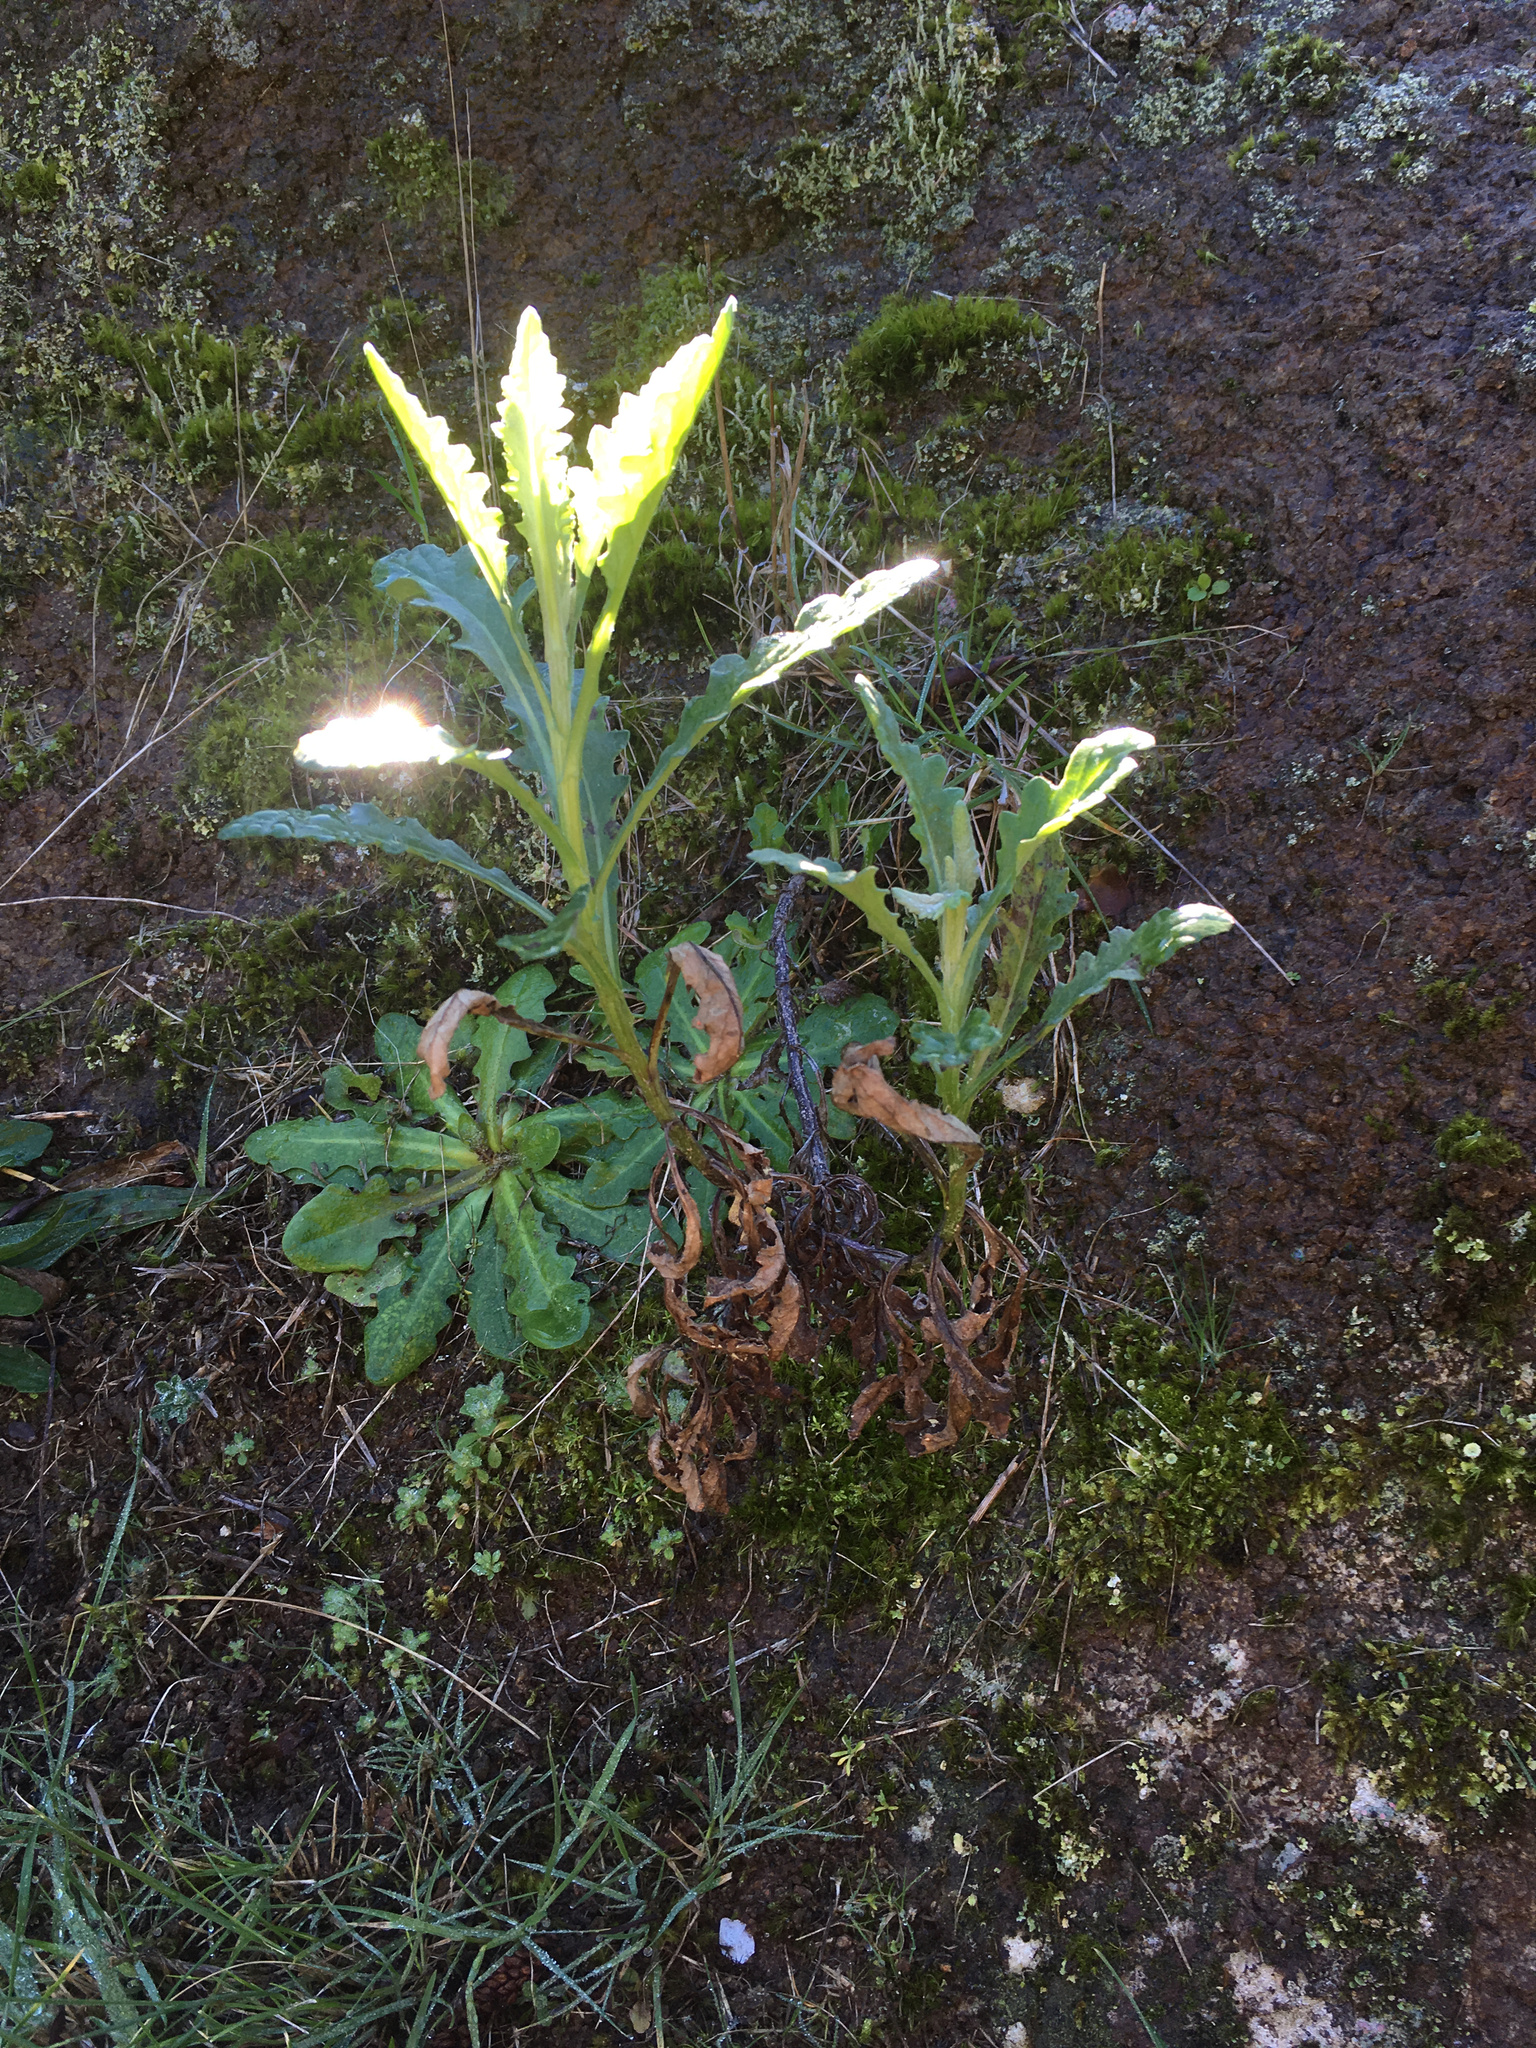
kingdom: Plantae
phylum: Tracheophyta
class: Magnoliopsida
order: Asterales
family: Asteraceae
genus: Senecio
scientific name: Senecio glomeratus
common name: Cutleaf burnweed
